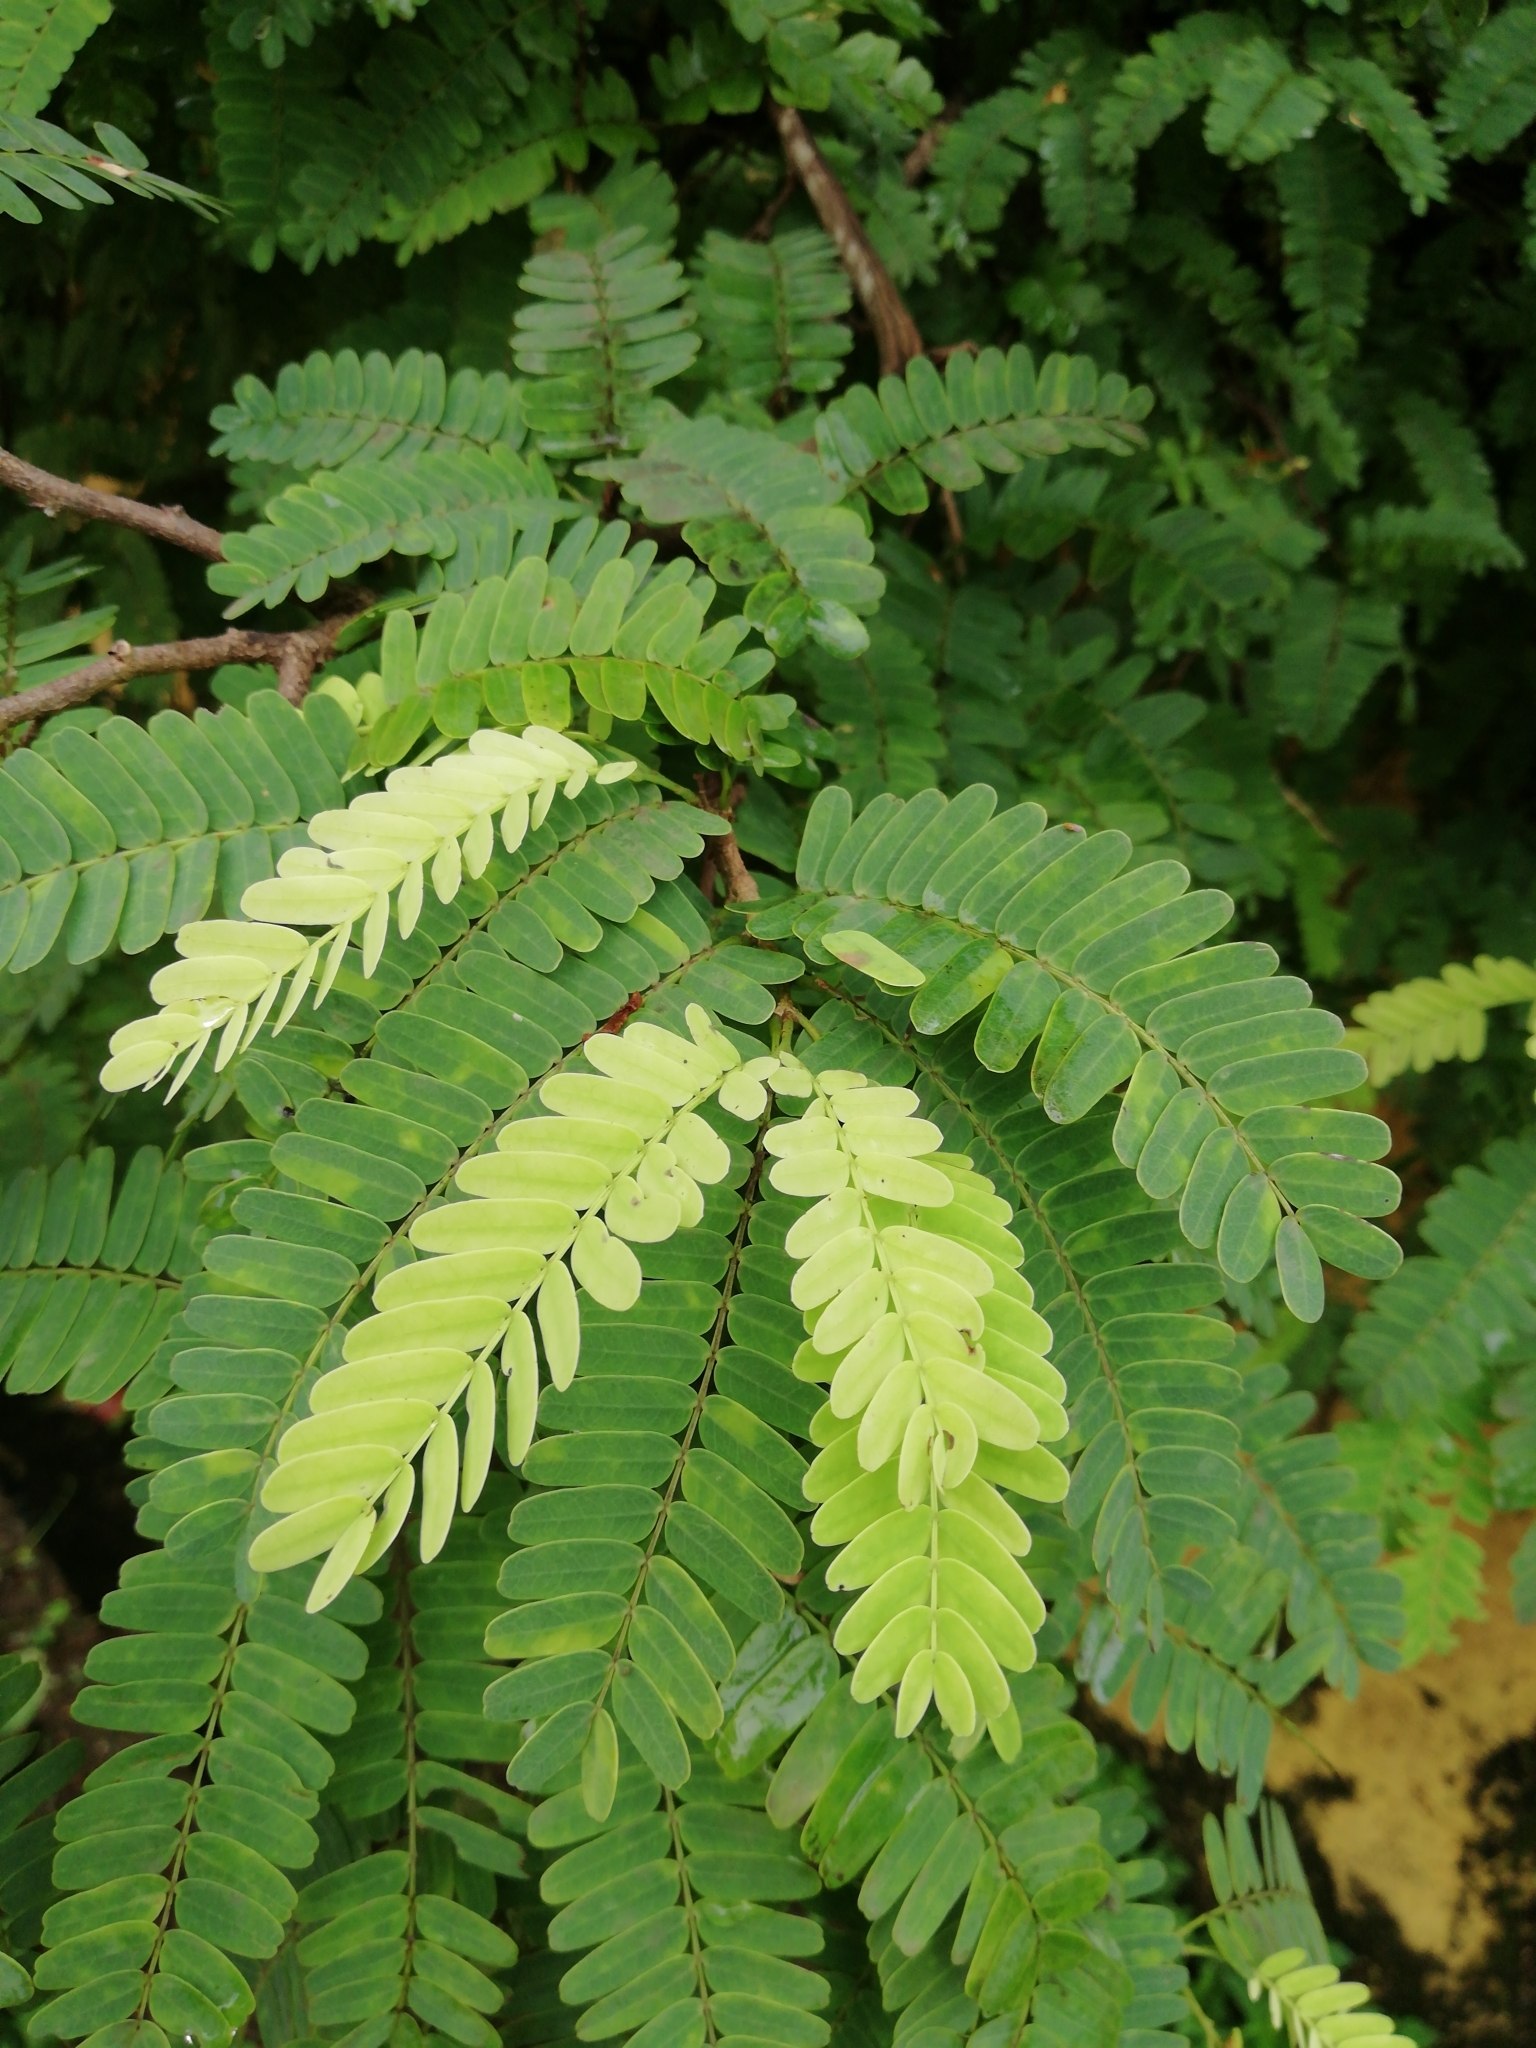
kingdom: Plantae
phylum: Tracheophyta
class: Magnoliopsida
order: Fabales
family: Fabaceae
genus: Tamarindus
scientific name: Tamarindus indica
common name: Tamarind
